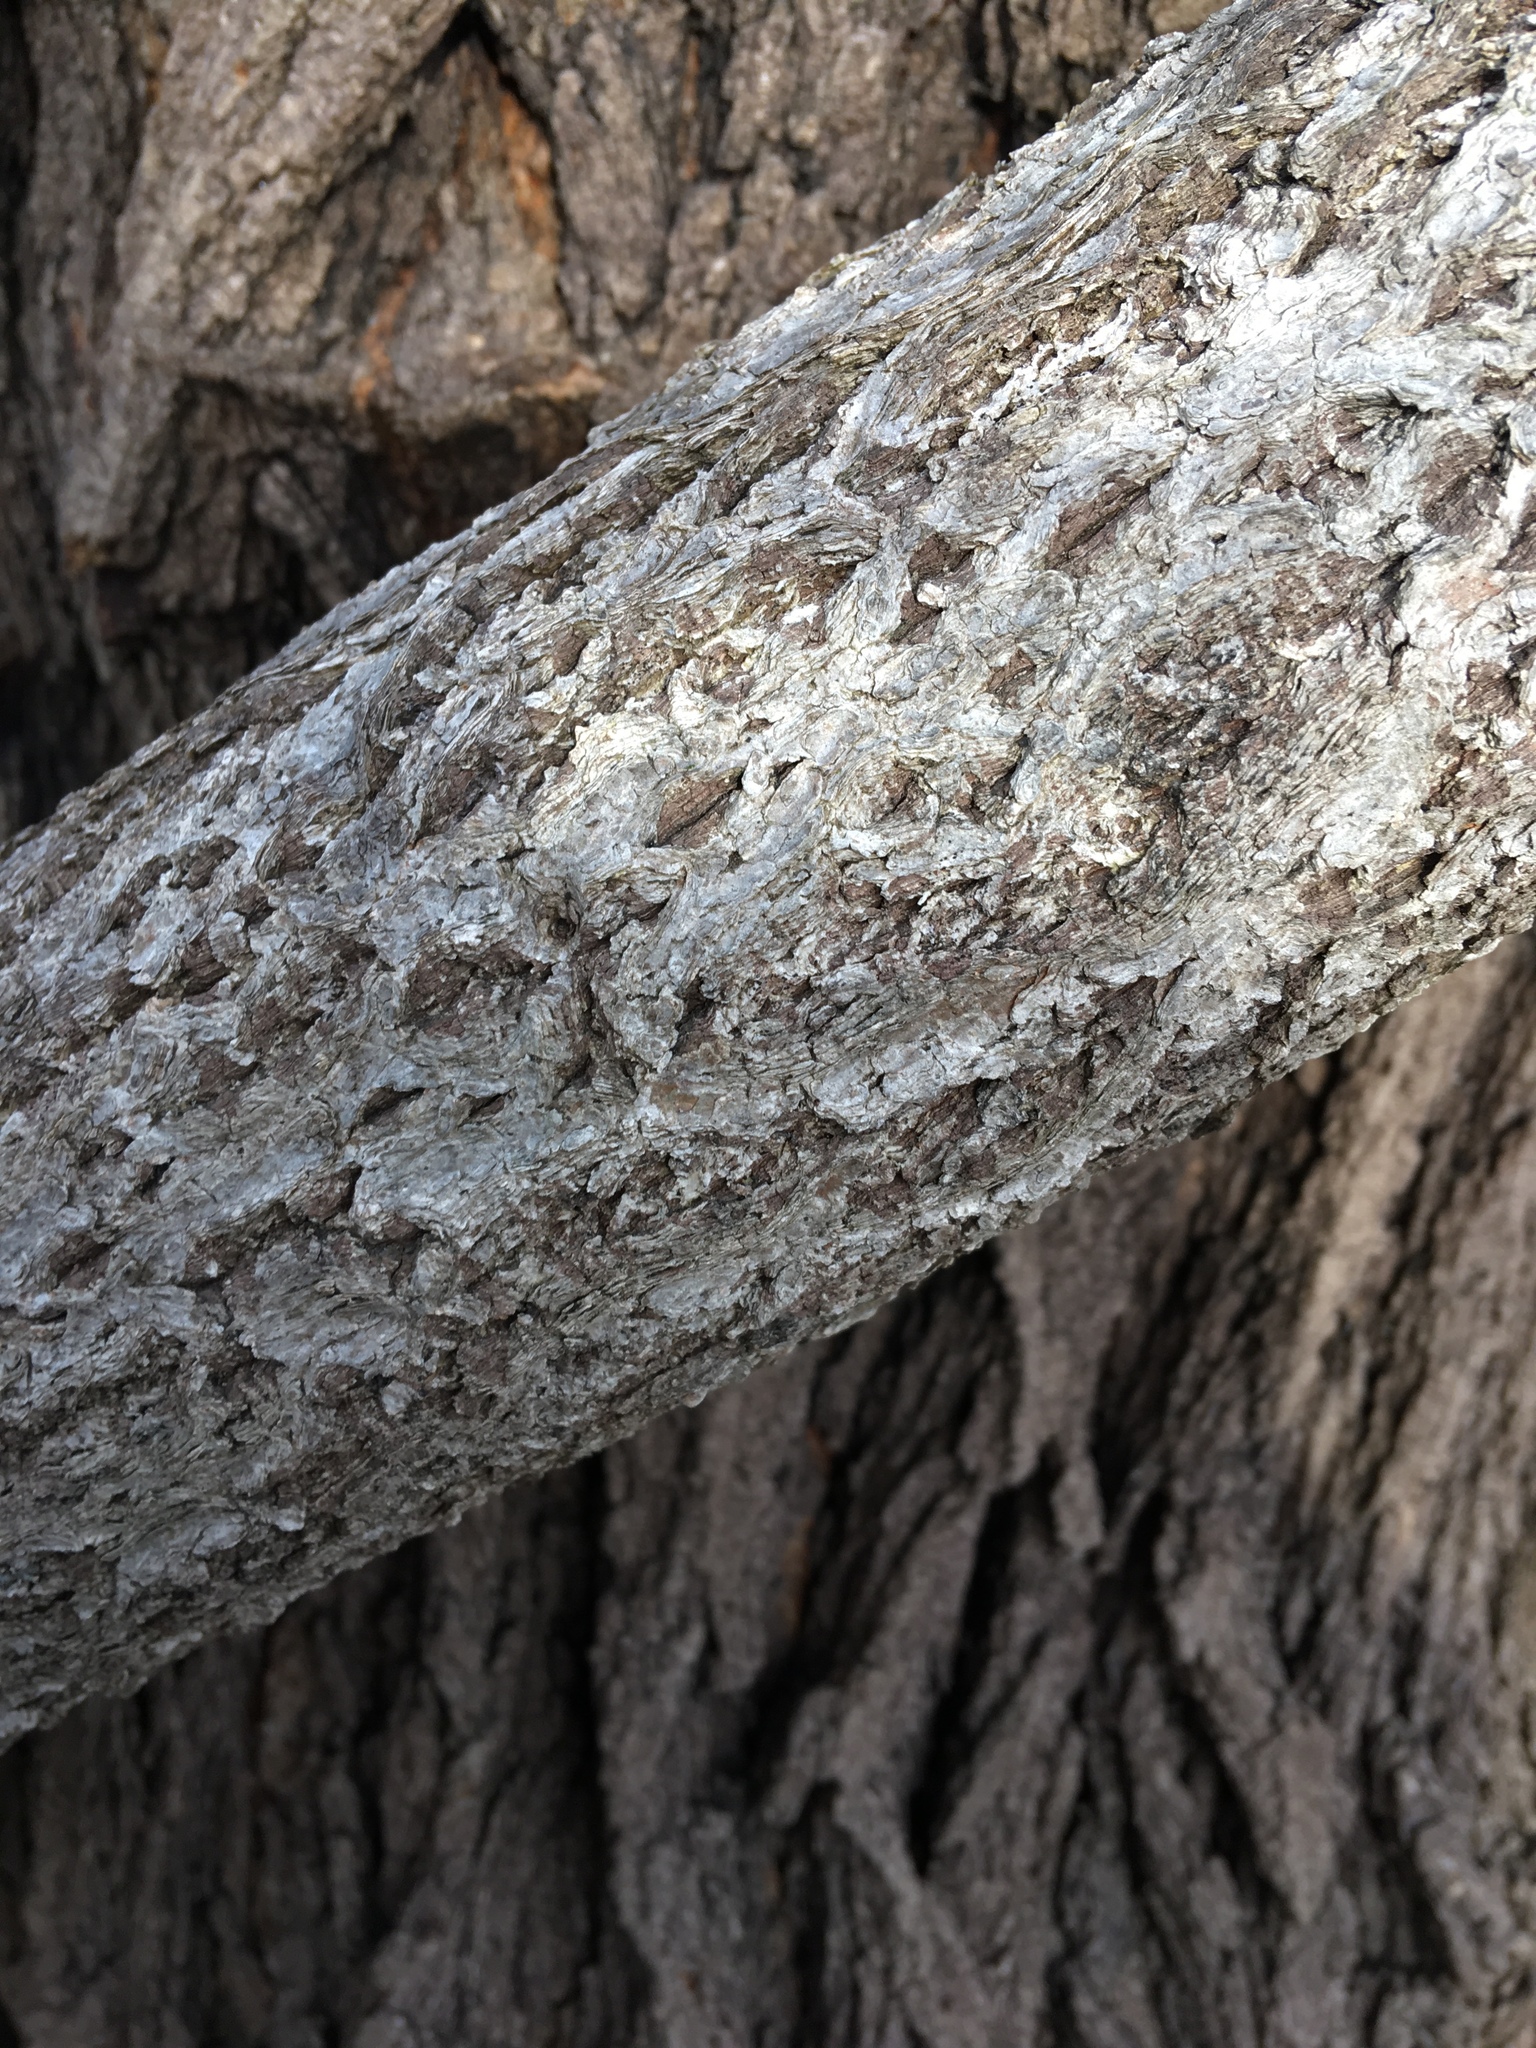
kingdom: Plantae
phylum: Tracheophyta
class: Magnoliopsida
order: Celastrales
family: Celastraceae
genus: Celastrus
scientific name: Celastrus orbiculatus
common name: Oriental bittersweet
